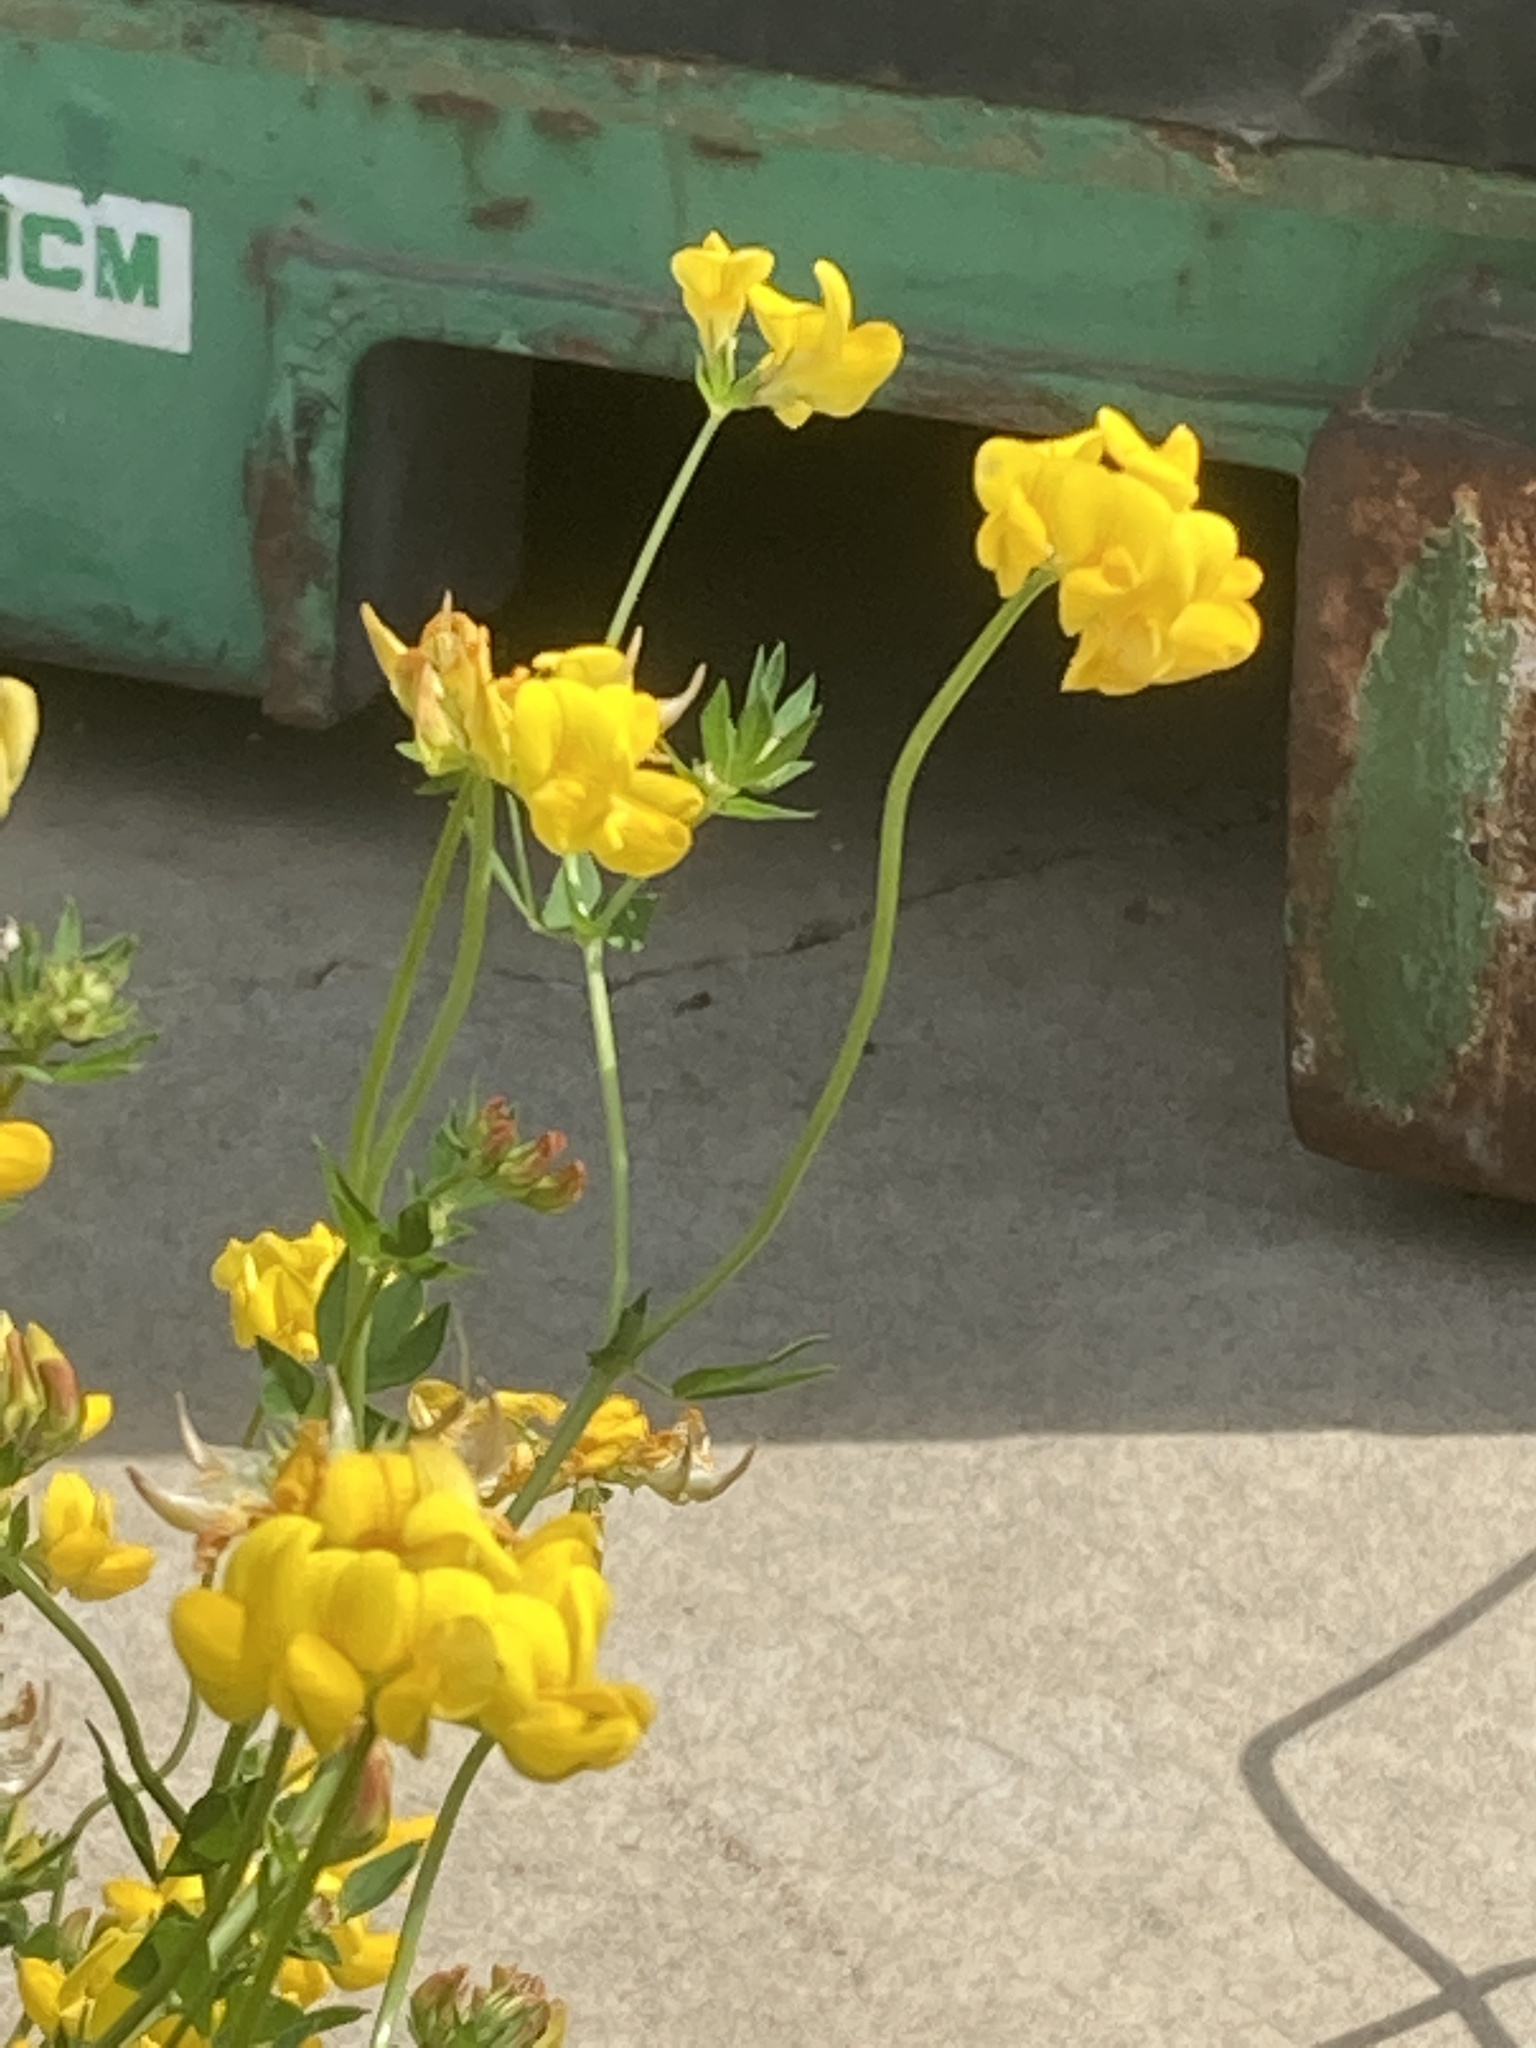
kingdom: Plantae
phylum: Tracheophyta
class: Magnoliopsida
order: Fabales
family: Fabaceae
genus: Lotus
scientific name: Lotus corniculatus
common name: Common bird's-foot-trefoil
